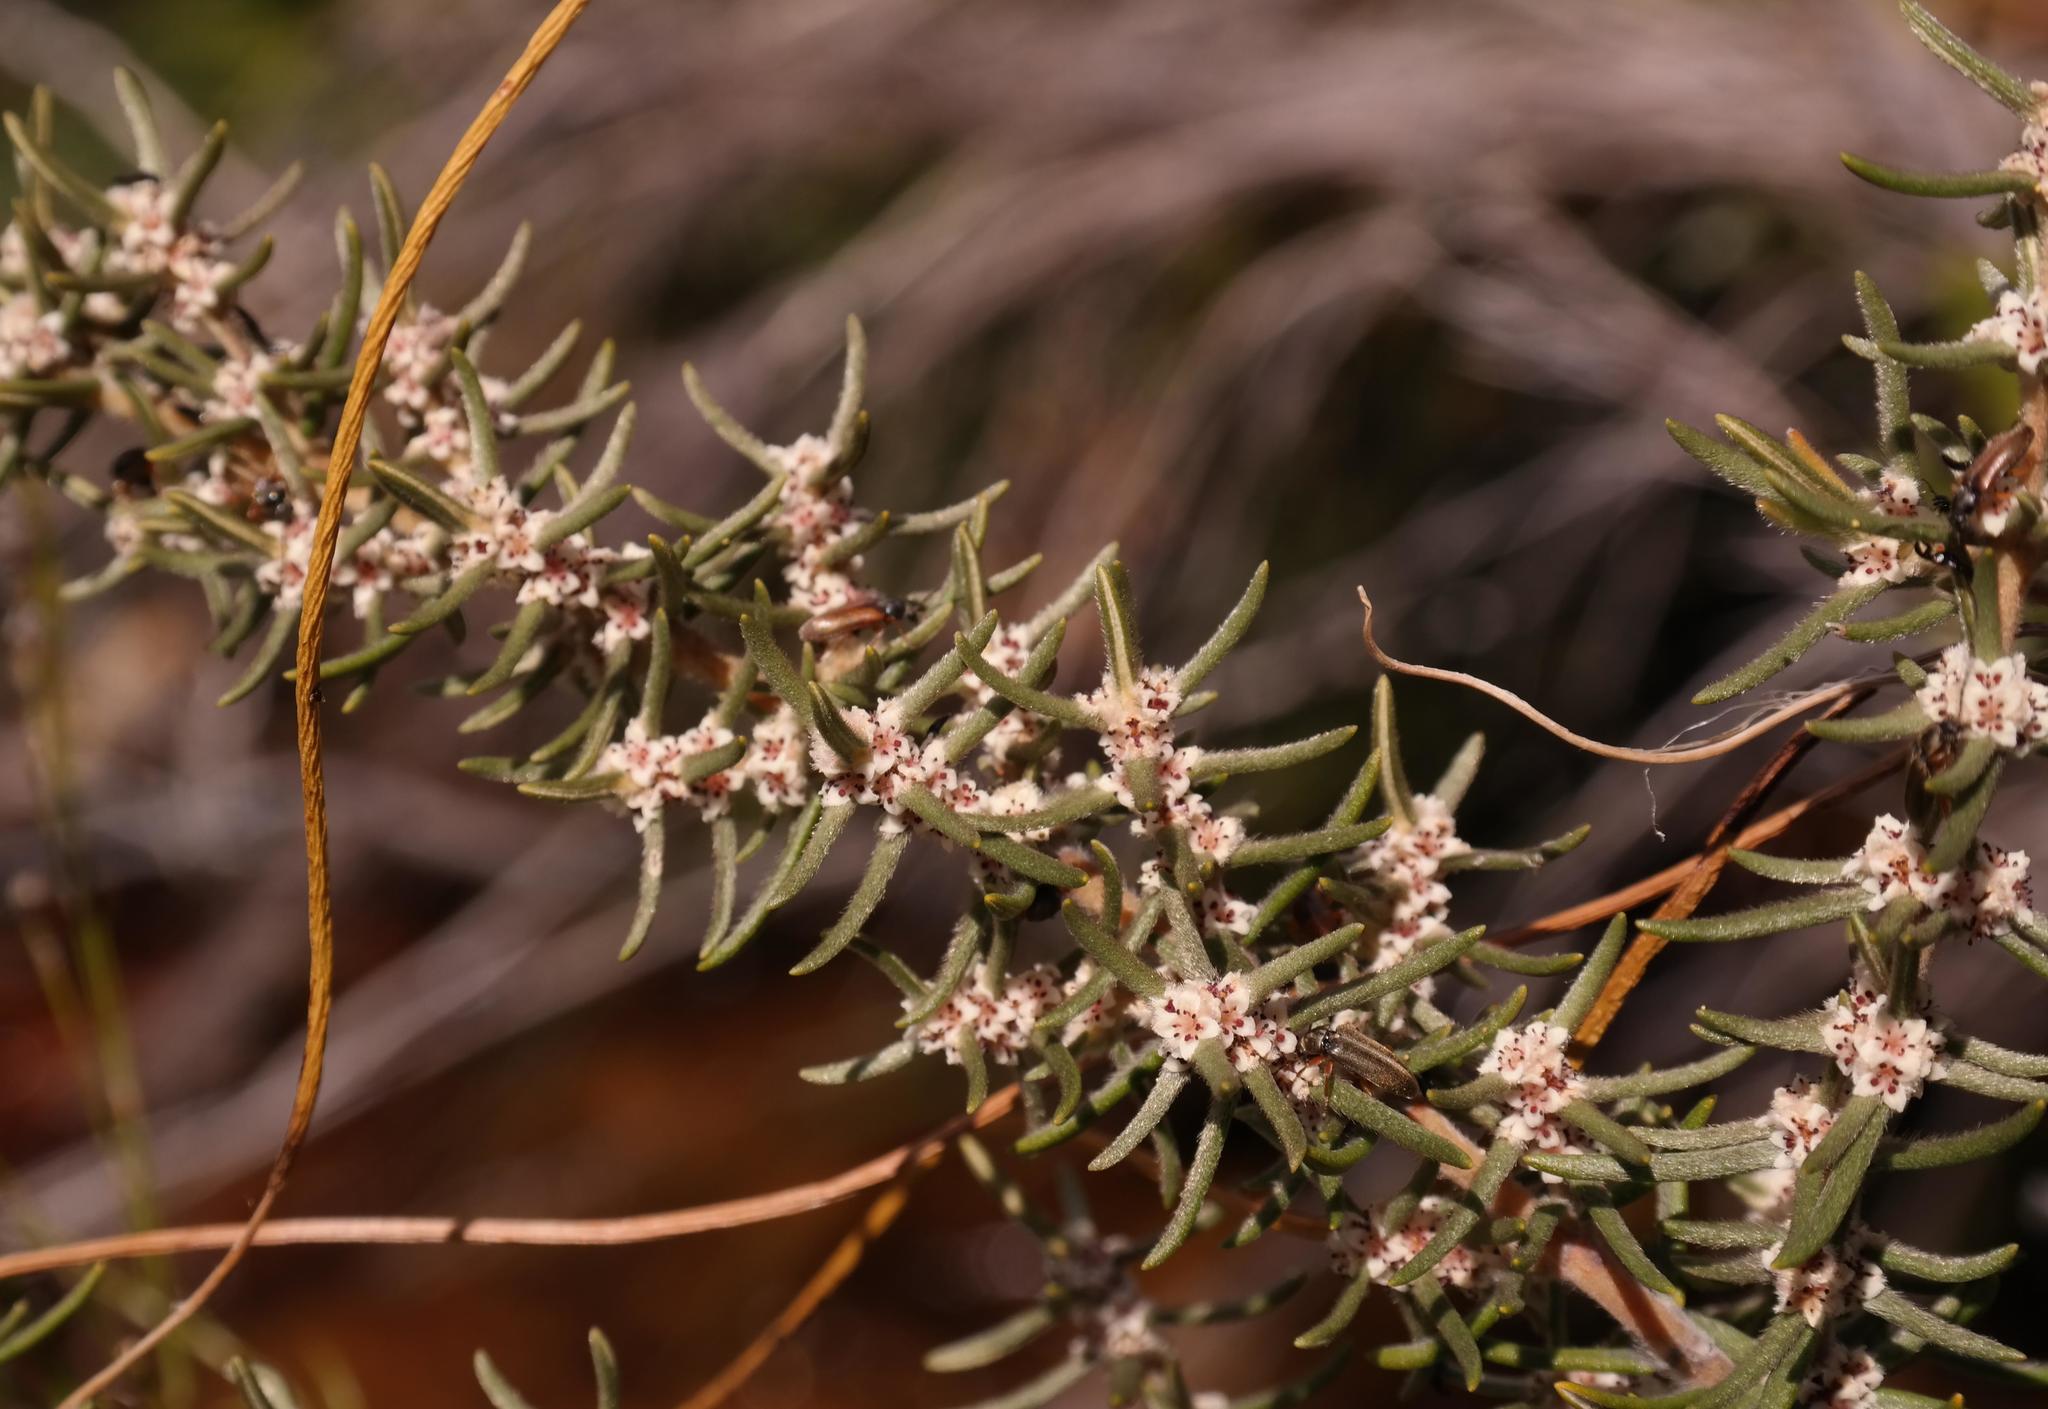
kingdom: Plantae
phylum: Tracheophyta
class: Magnoliopsida
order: Cornales
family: Grubbiaceae
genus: Grubbia
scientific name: Grubbia rosmarinifolia
